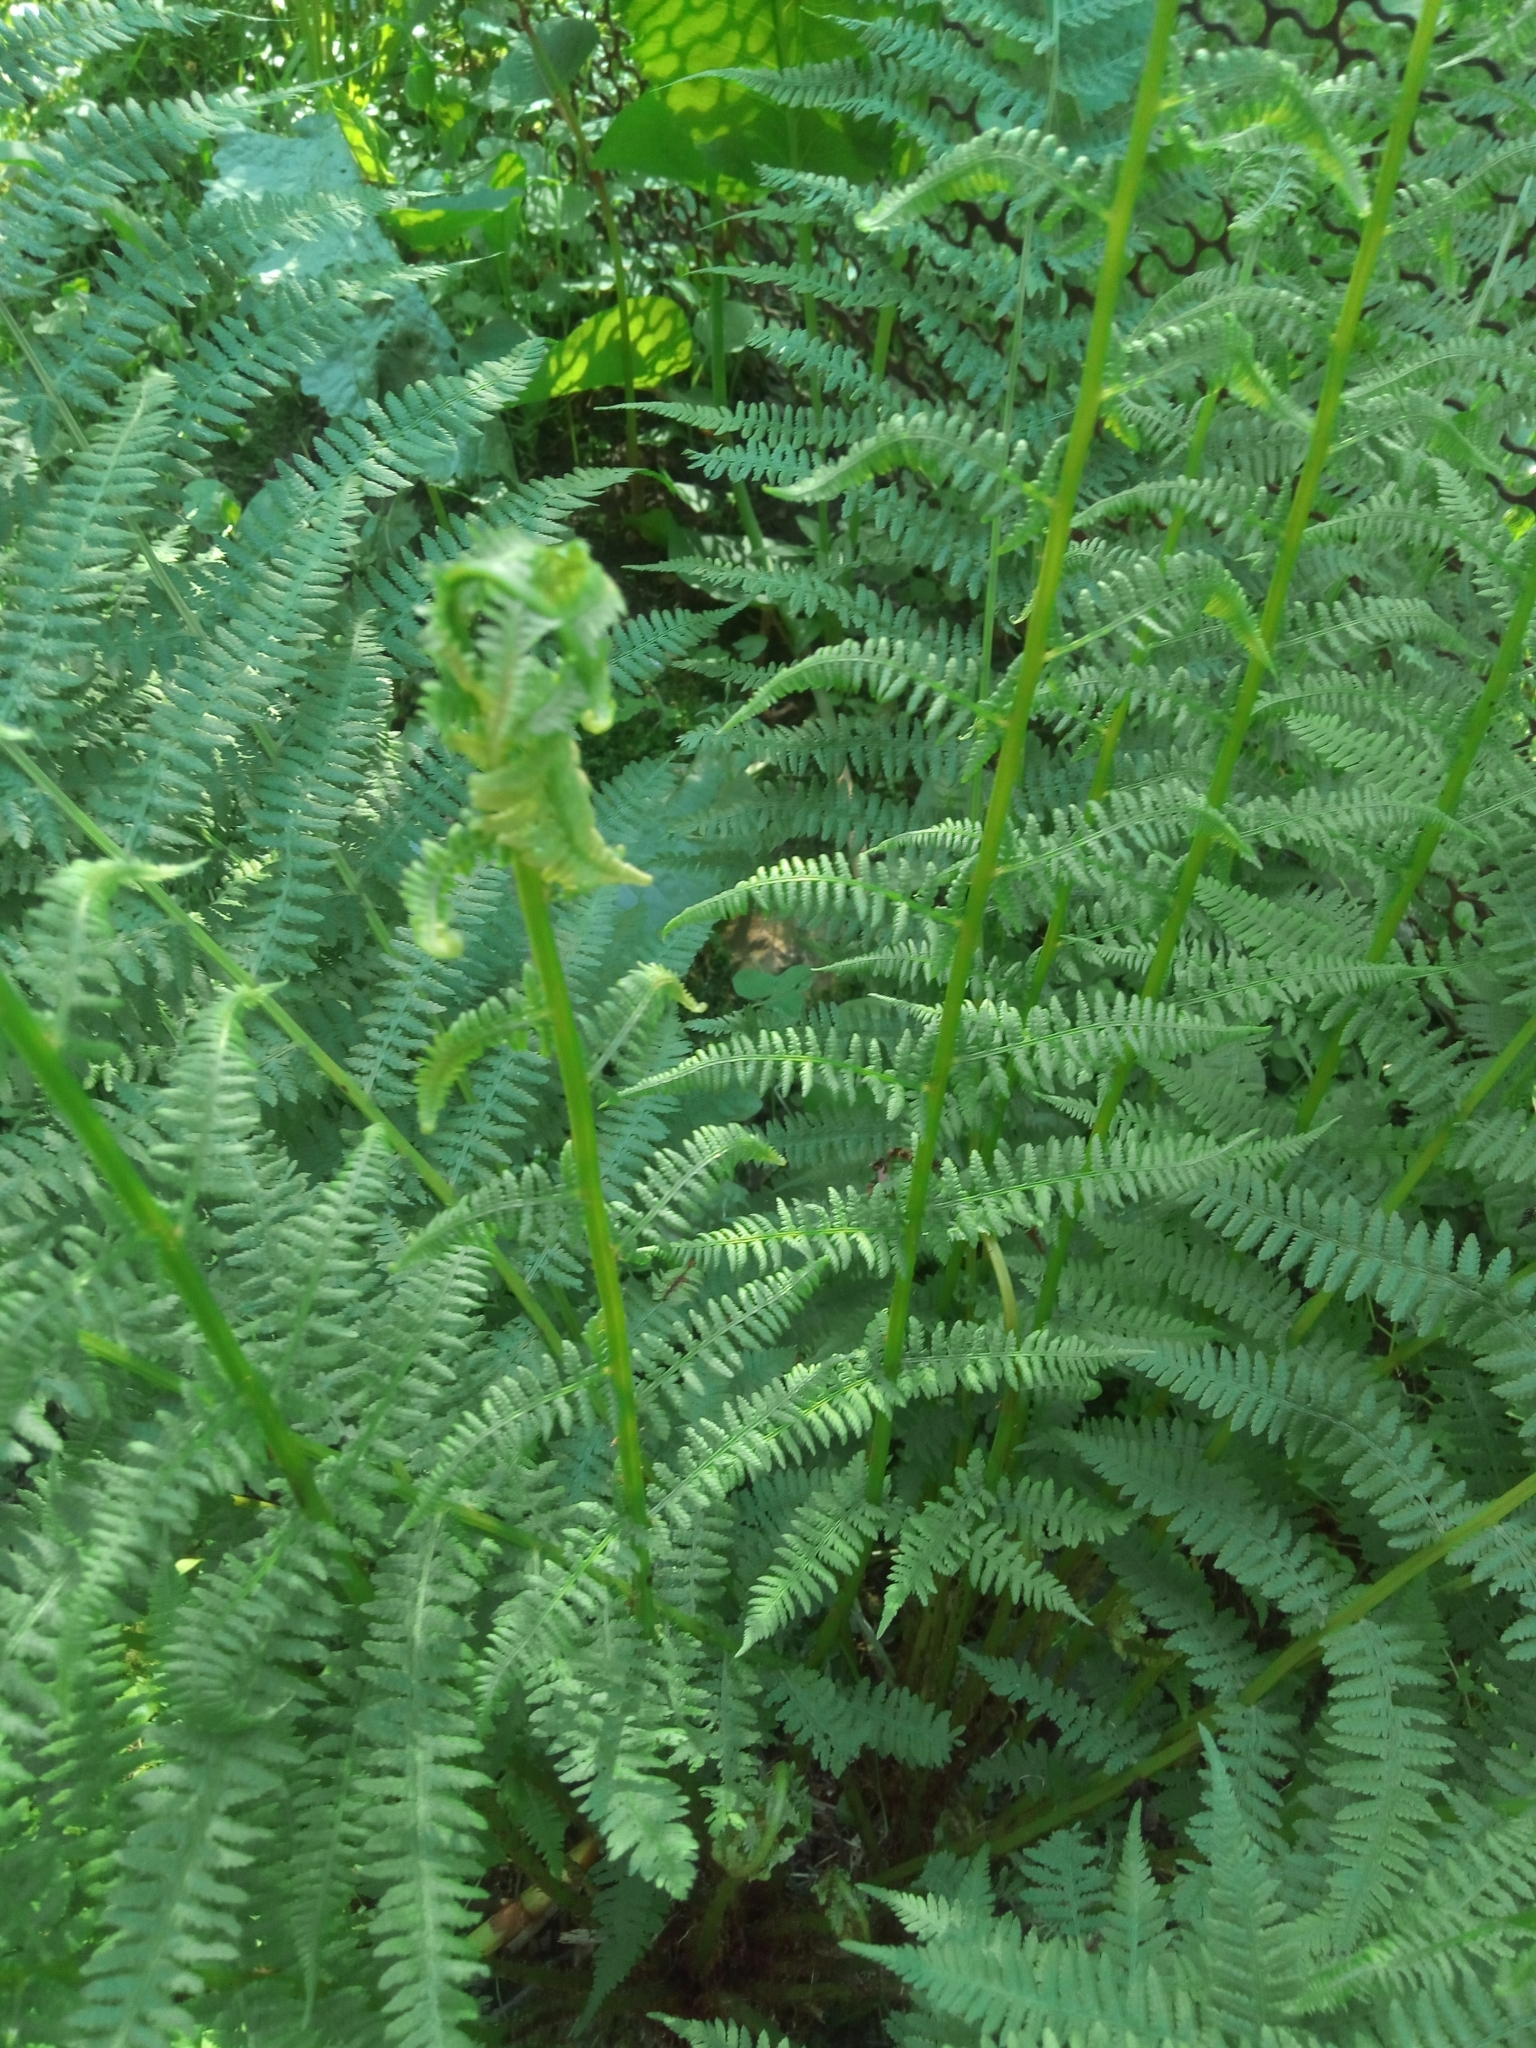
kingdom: Plantae
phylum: Tracheophyta
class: Polypodiopsida
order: Polypodiales
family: Athyriaceae
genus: Athyrium
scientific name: Athyrium filix-femina
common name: Lady fern
